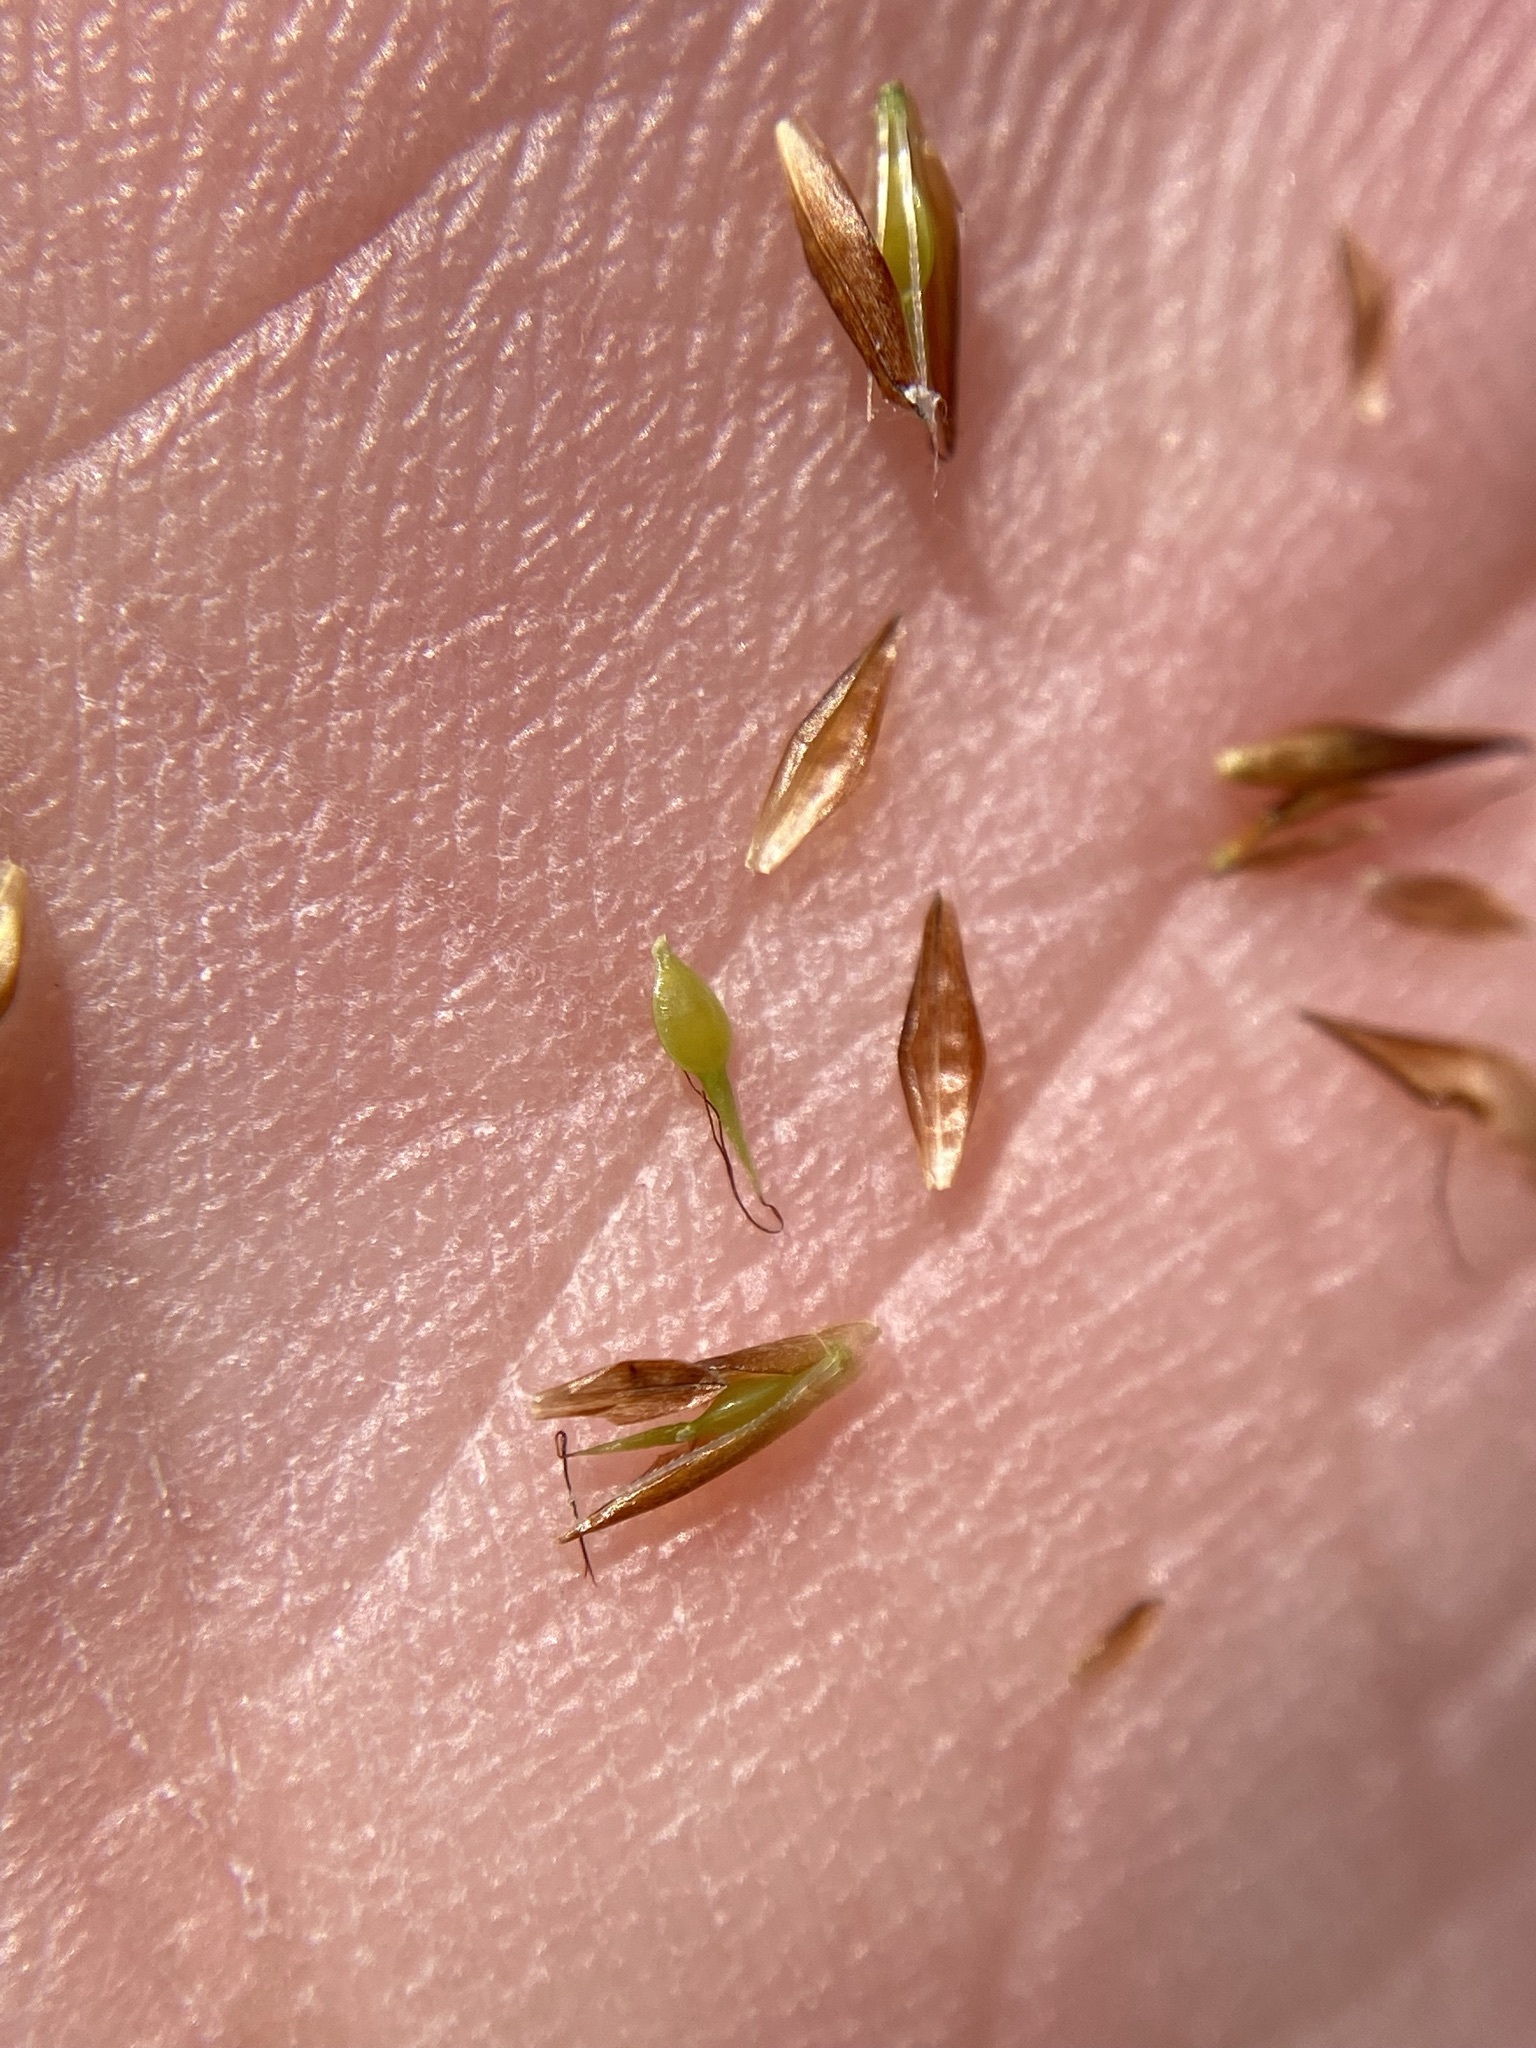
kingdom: Plantae
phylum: Tracheophyta
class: Liliopsida
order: Poales
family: Cyperaceae
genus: Rhynchospora
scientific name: Rhynchospora chalarocephala
